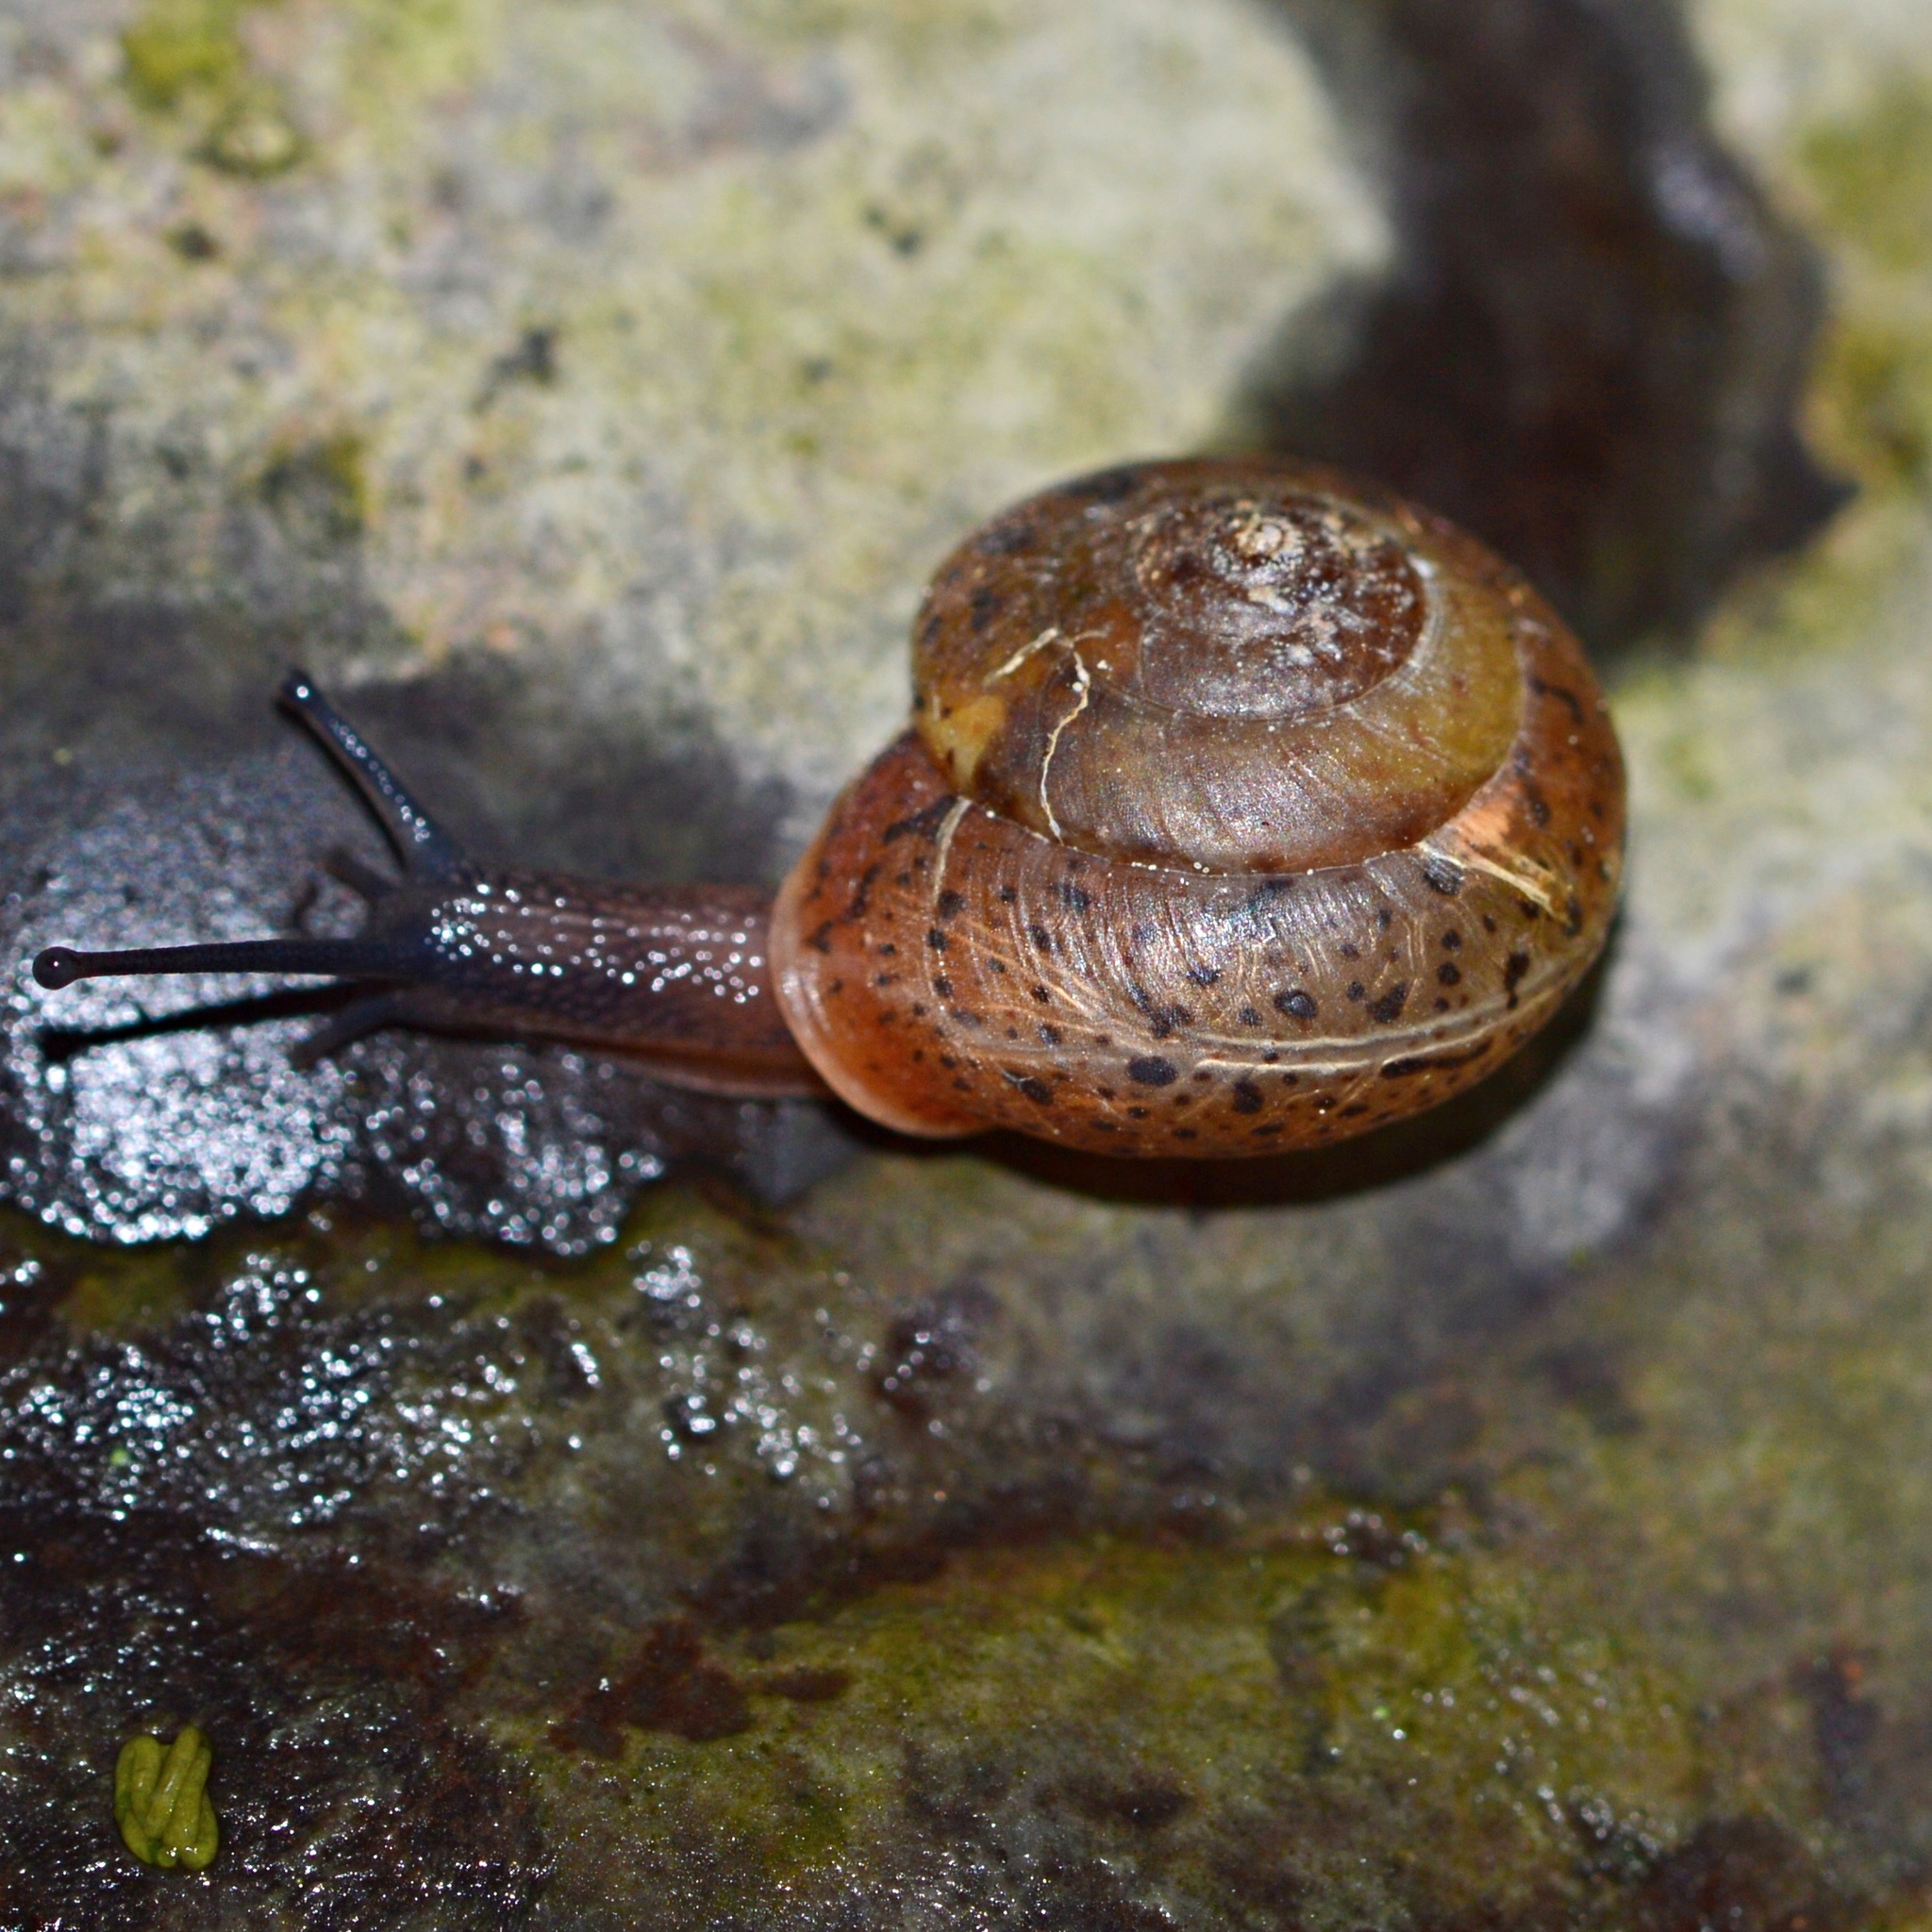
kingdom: Animalia
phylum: Mollusca
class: Gastropoda
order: Stylommatophora
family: Hygromiidae
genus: Monachoides
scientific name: Monachoides incarnatus
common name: Incarnate snail
